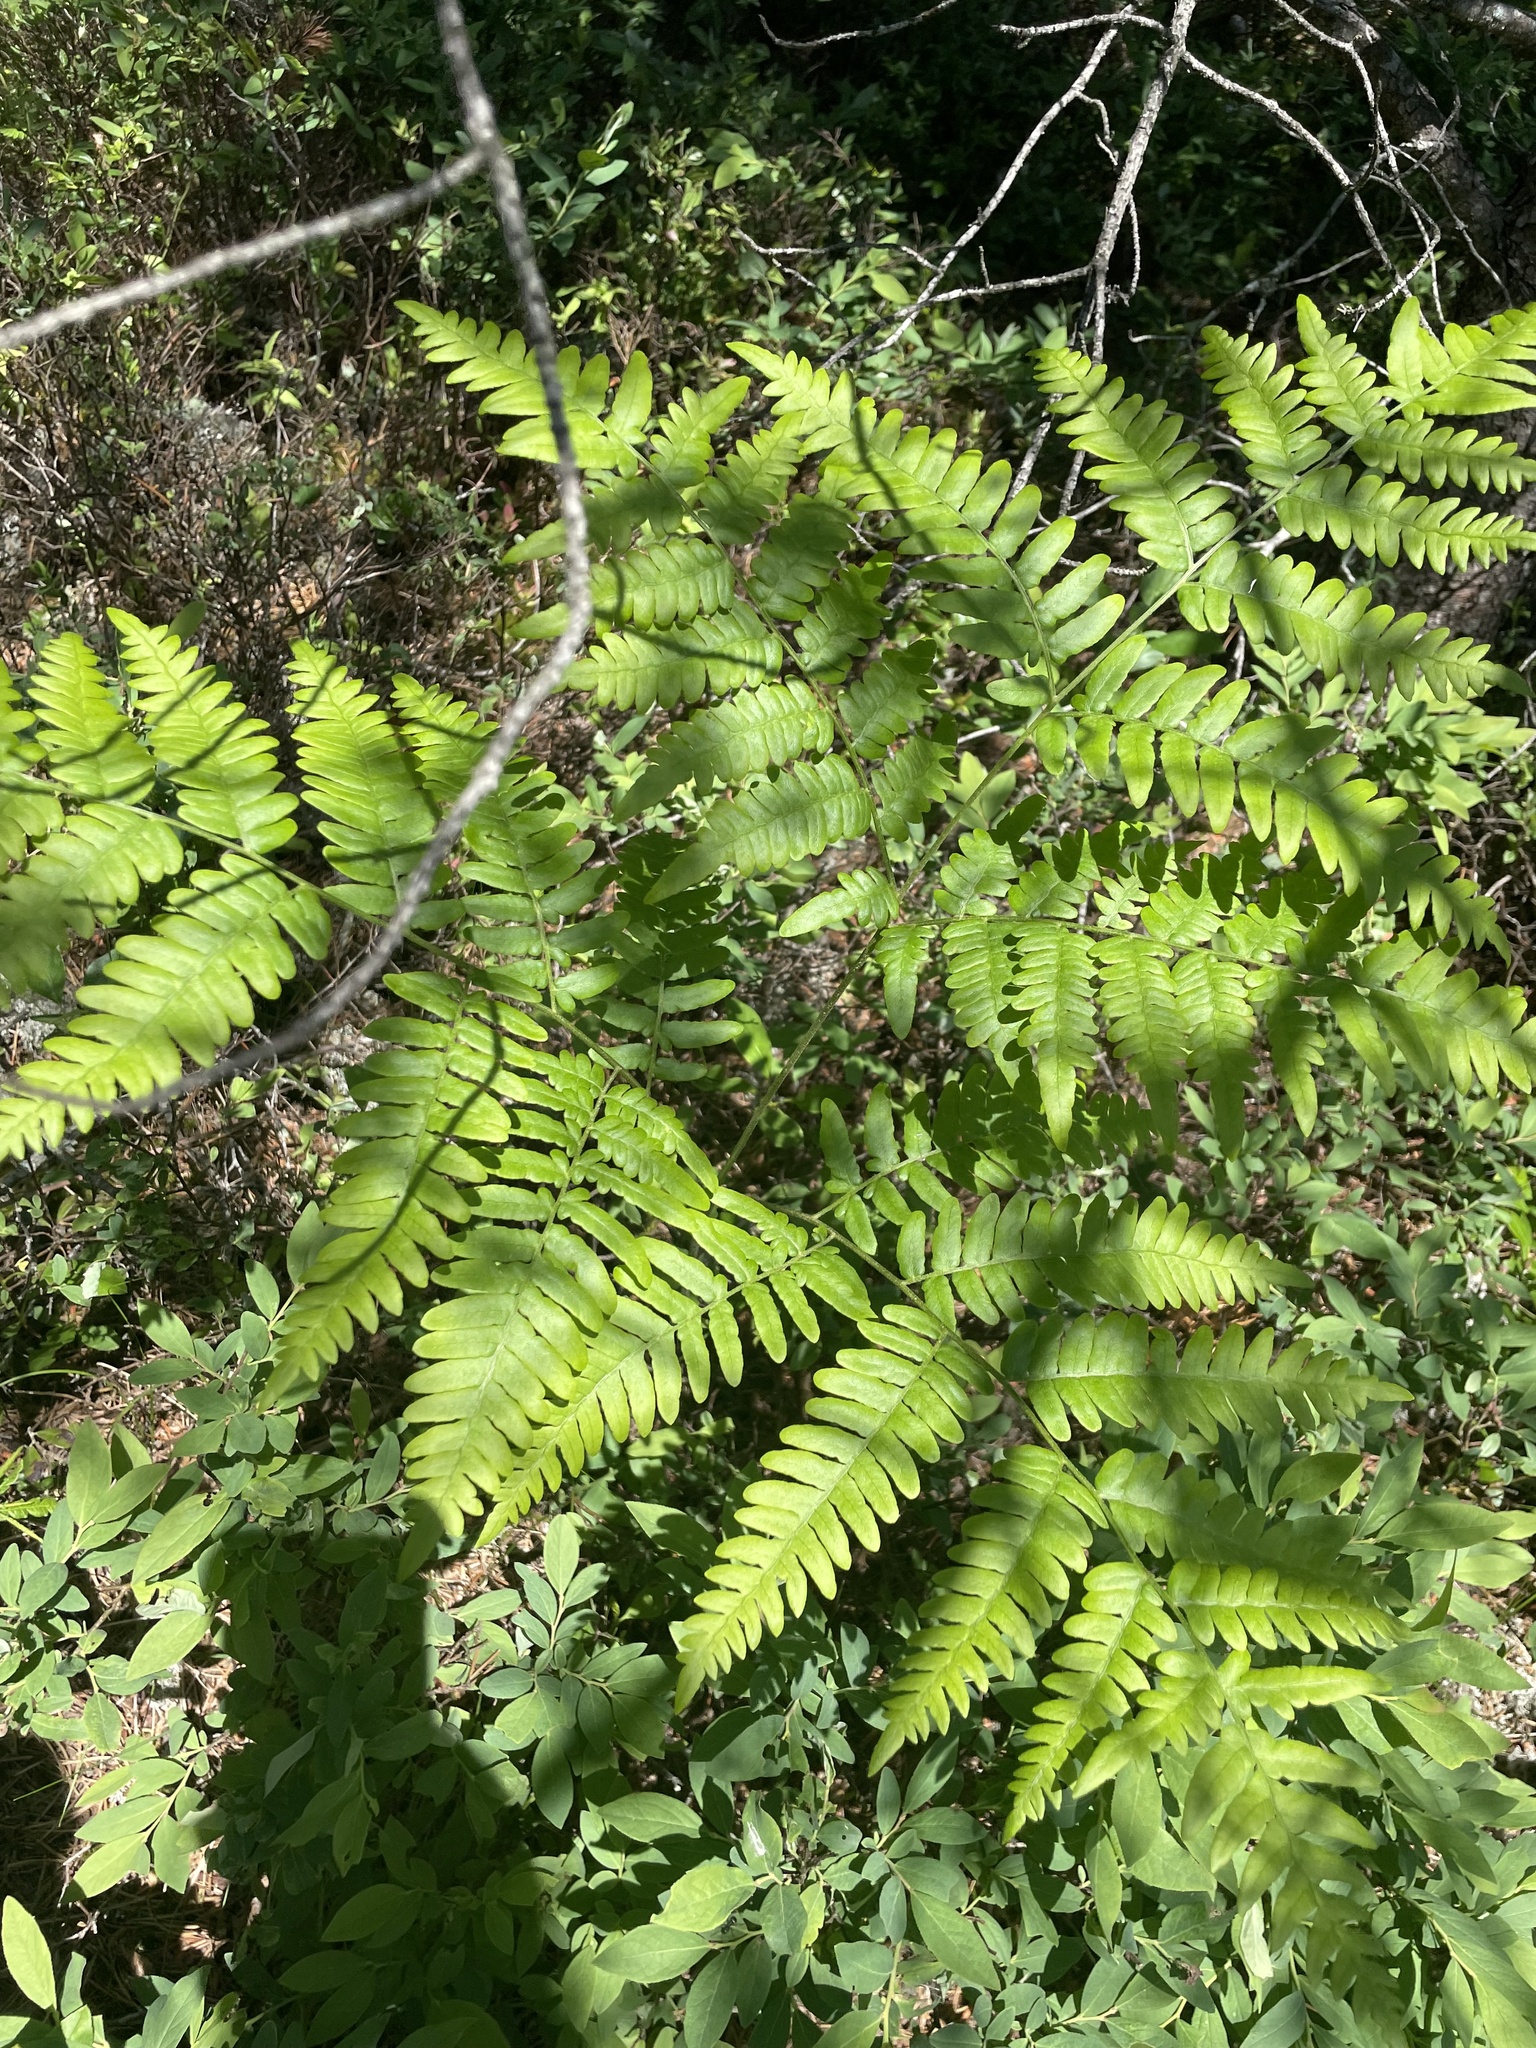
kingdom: Plantae
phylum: Tracheophyta
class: Polypodiopsida
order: Polypodiales
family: Dennstaedtiaceae
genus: Pteridium
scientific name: Pteridium aquilinum
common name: Bracken
